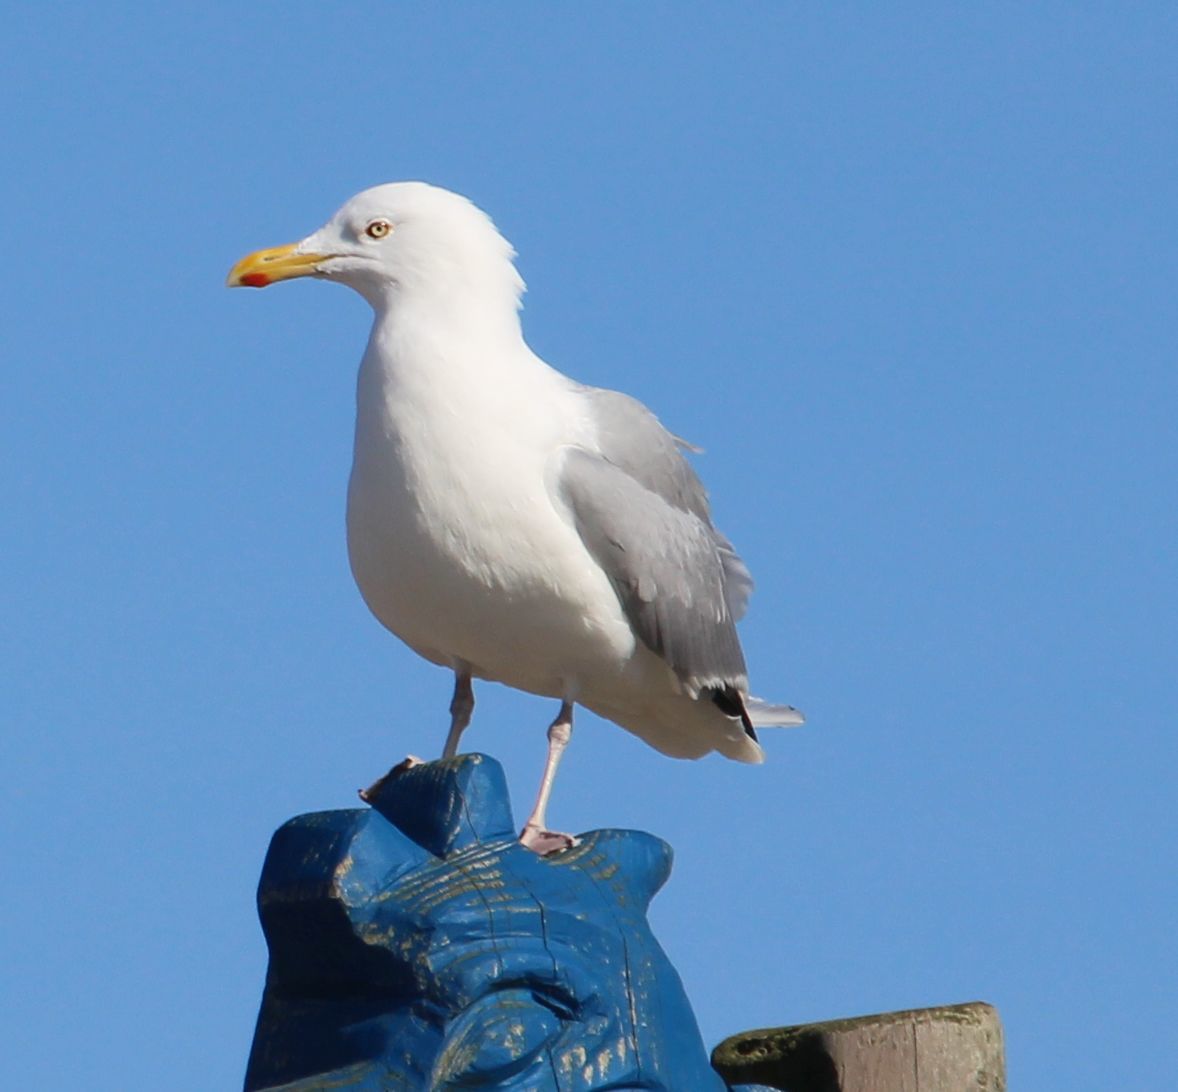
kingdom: Animalia
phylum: Chordata
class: Aves
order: Charadriiformes
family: Laridae
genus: Larus
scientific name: Larus argentatus
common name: Herring gull
